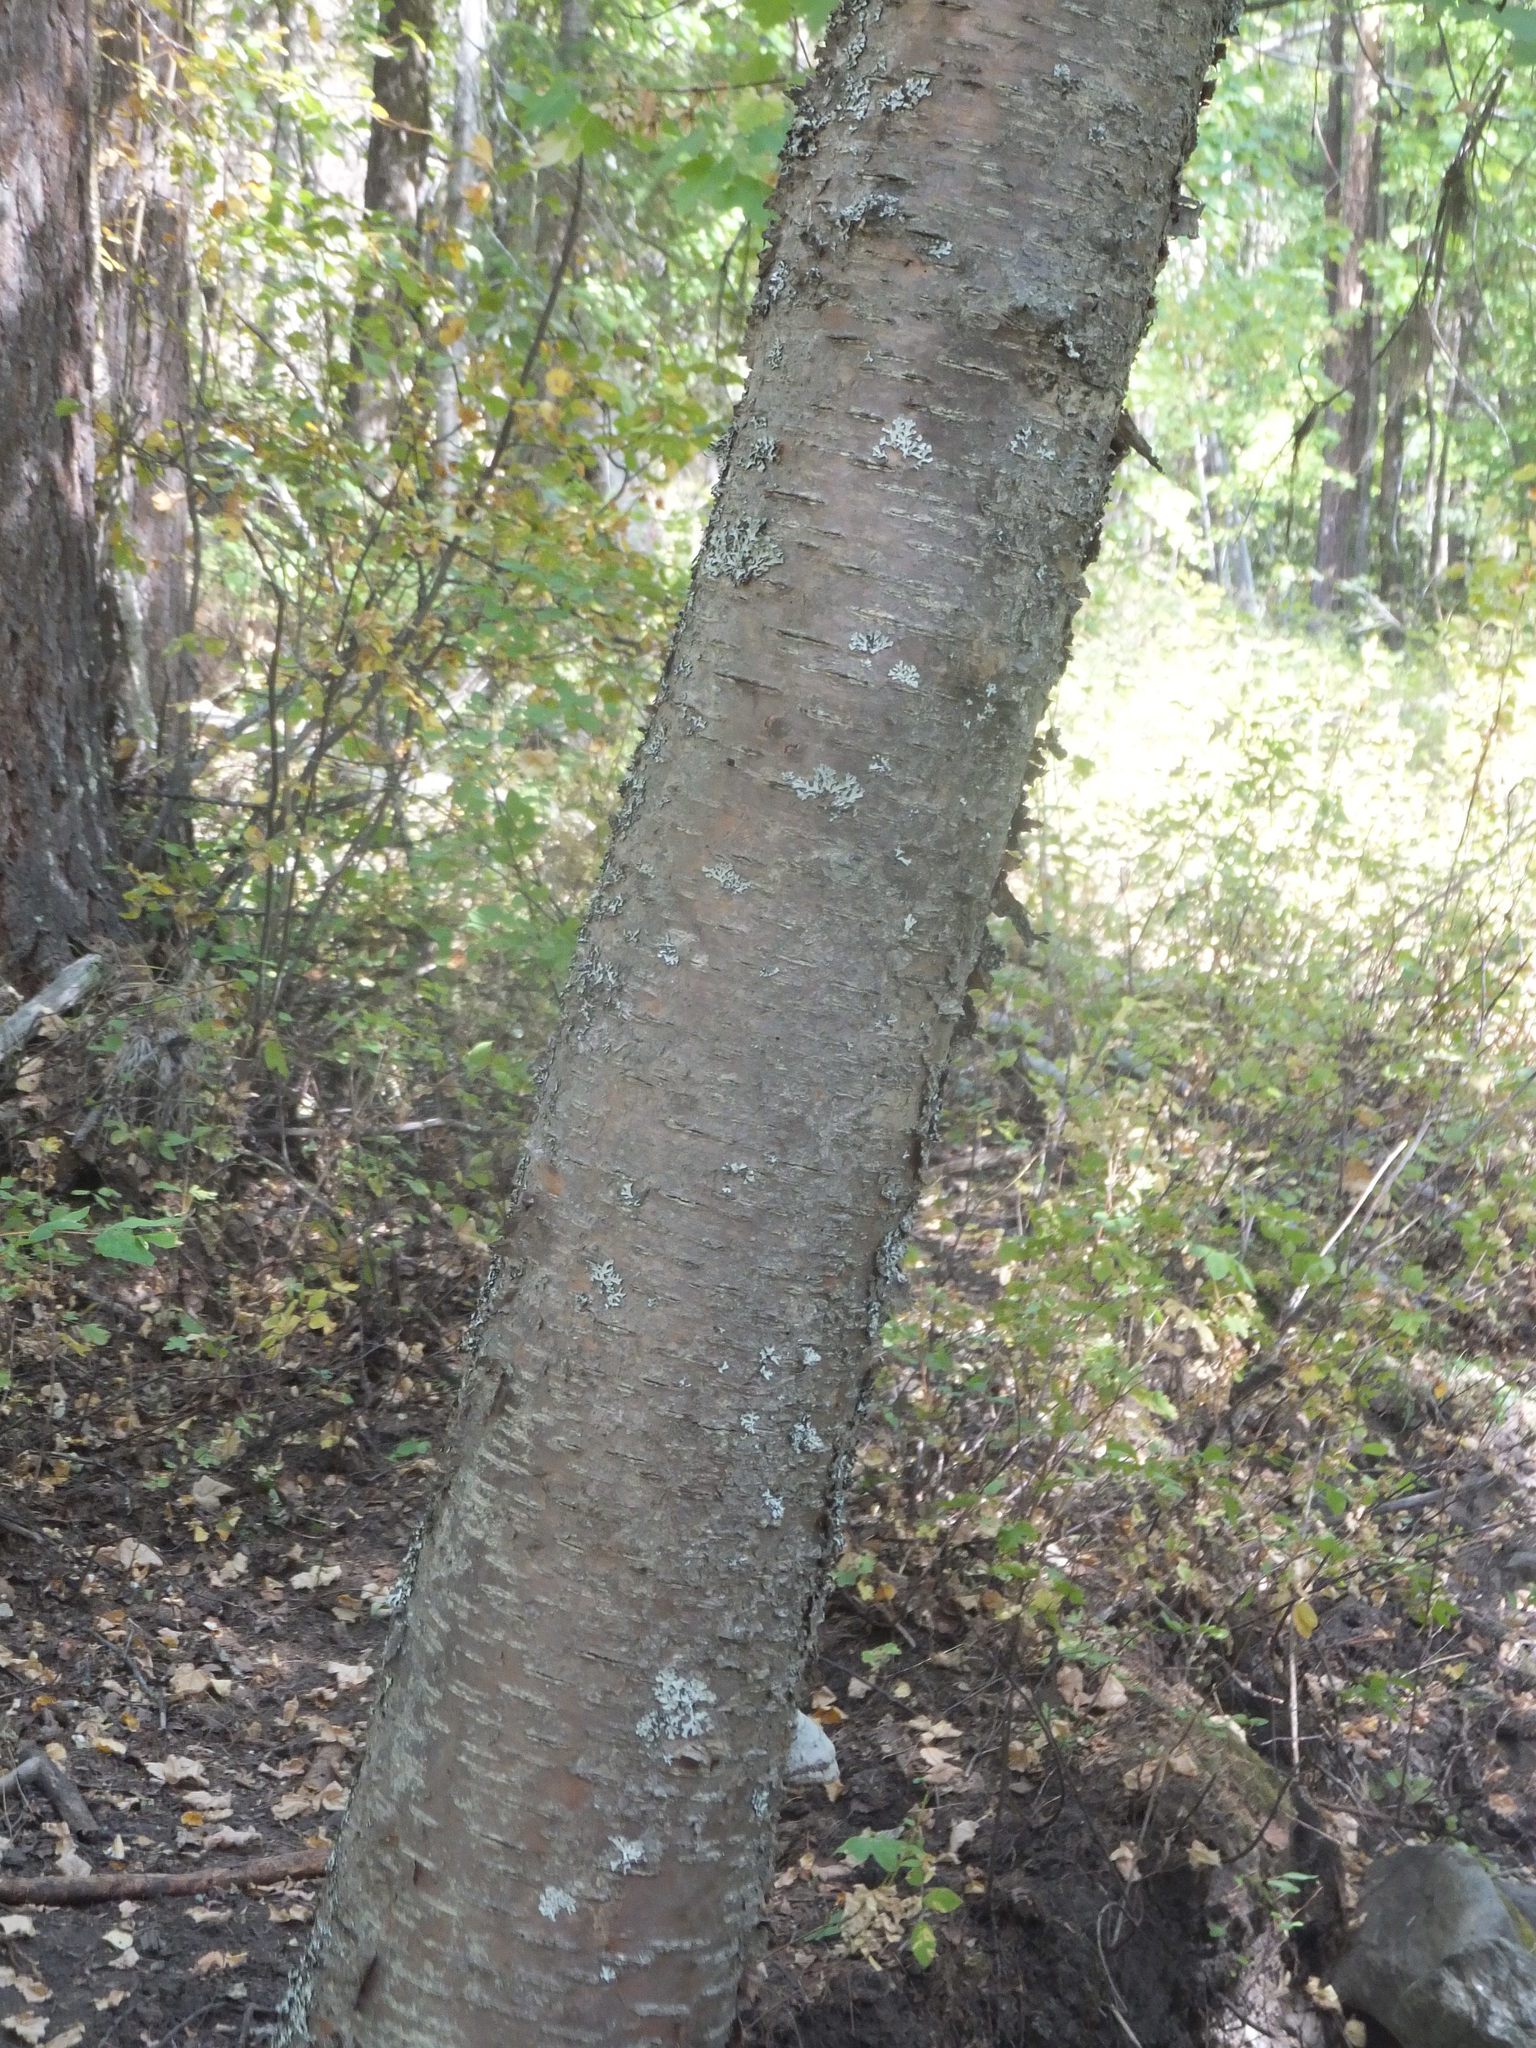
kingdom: Plantae
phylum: Tracheophyta
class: Magnoliopsida
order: Fagales
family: Betulaceae
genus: Betula
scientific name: Betula occidentalis
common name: River birch
